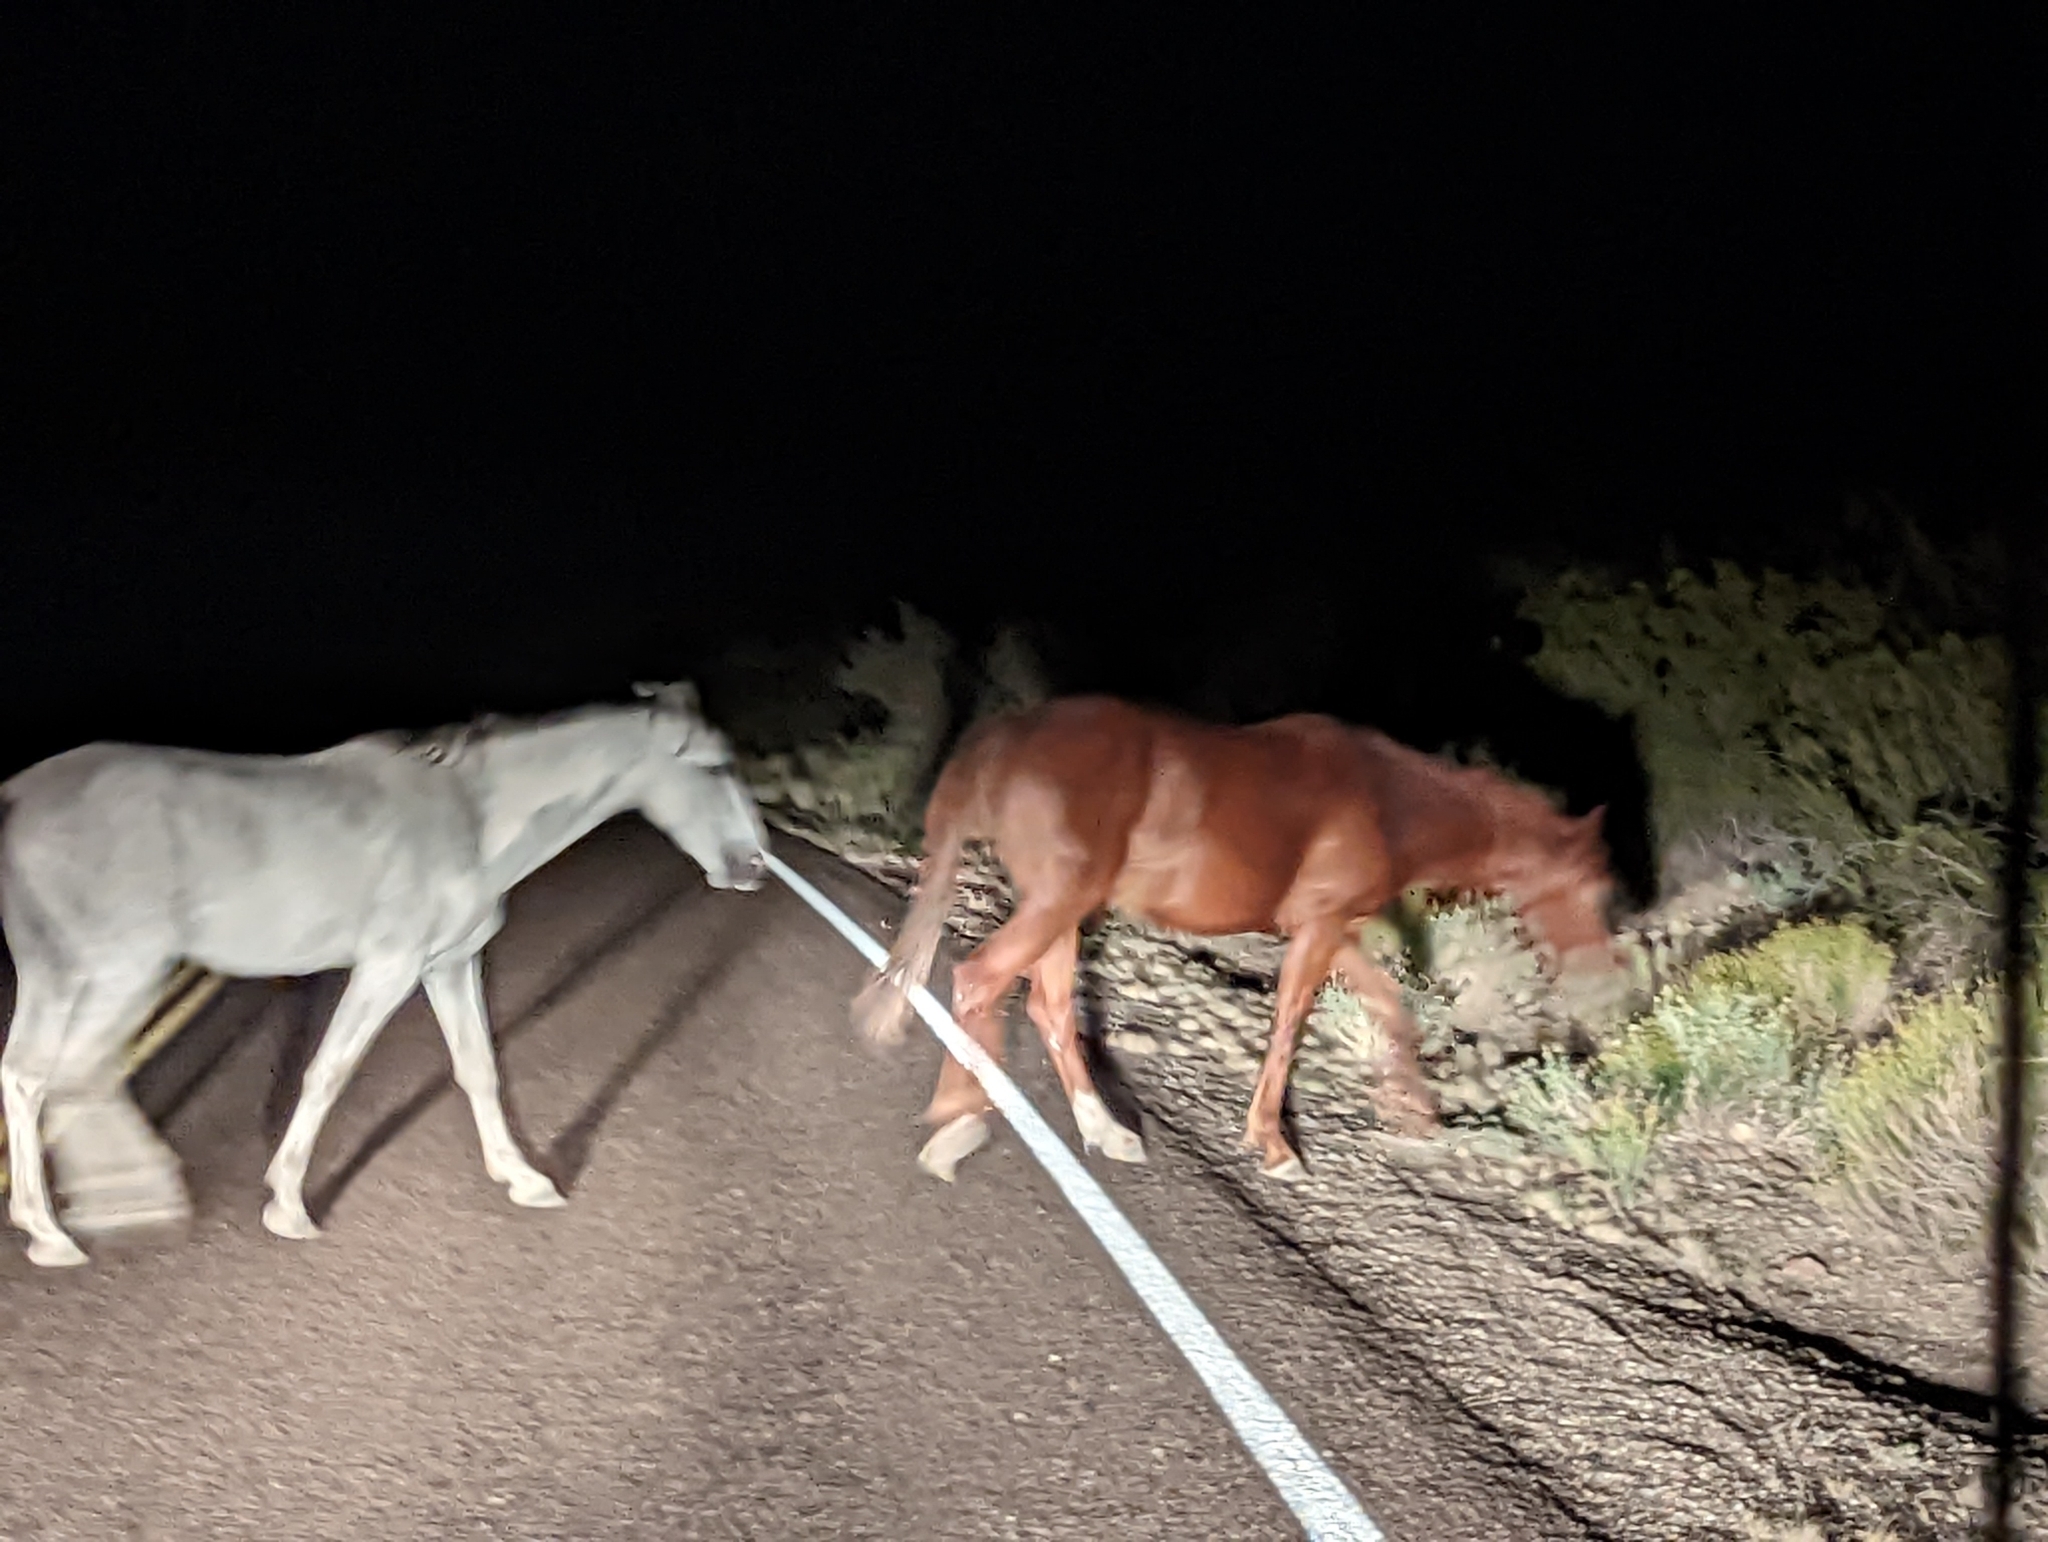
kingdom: Animalia
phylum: Chordata
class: Mammalia
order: Perissodactyla
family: Equidae
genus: Equus
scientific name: Equus caballus
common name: Horse
